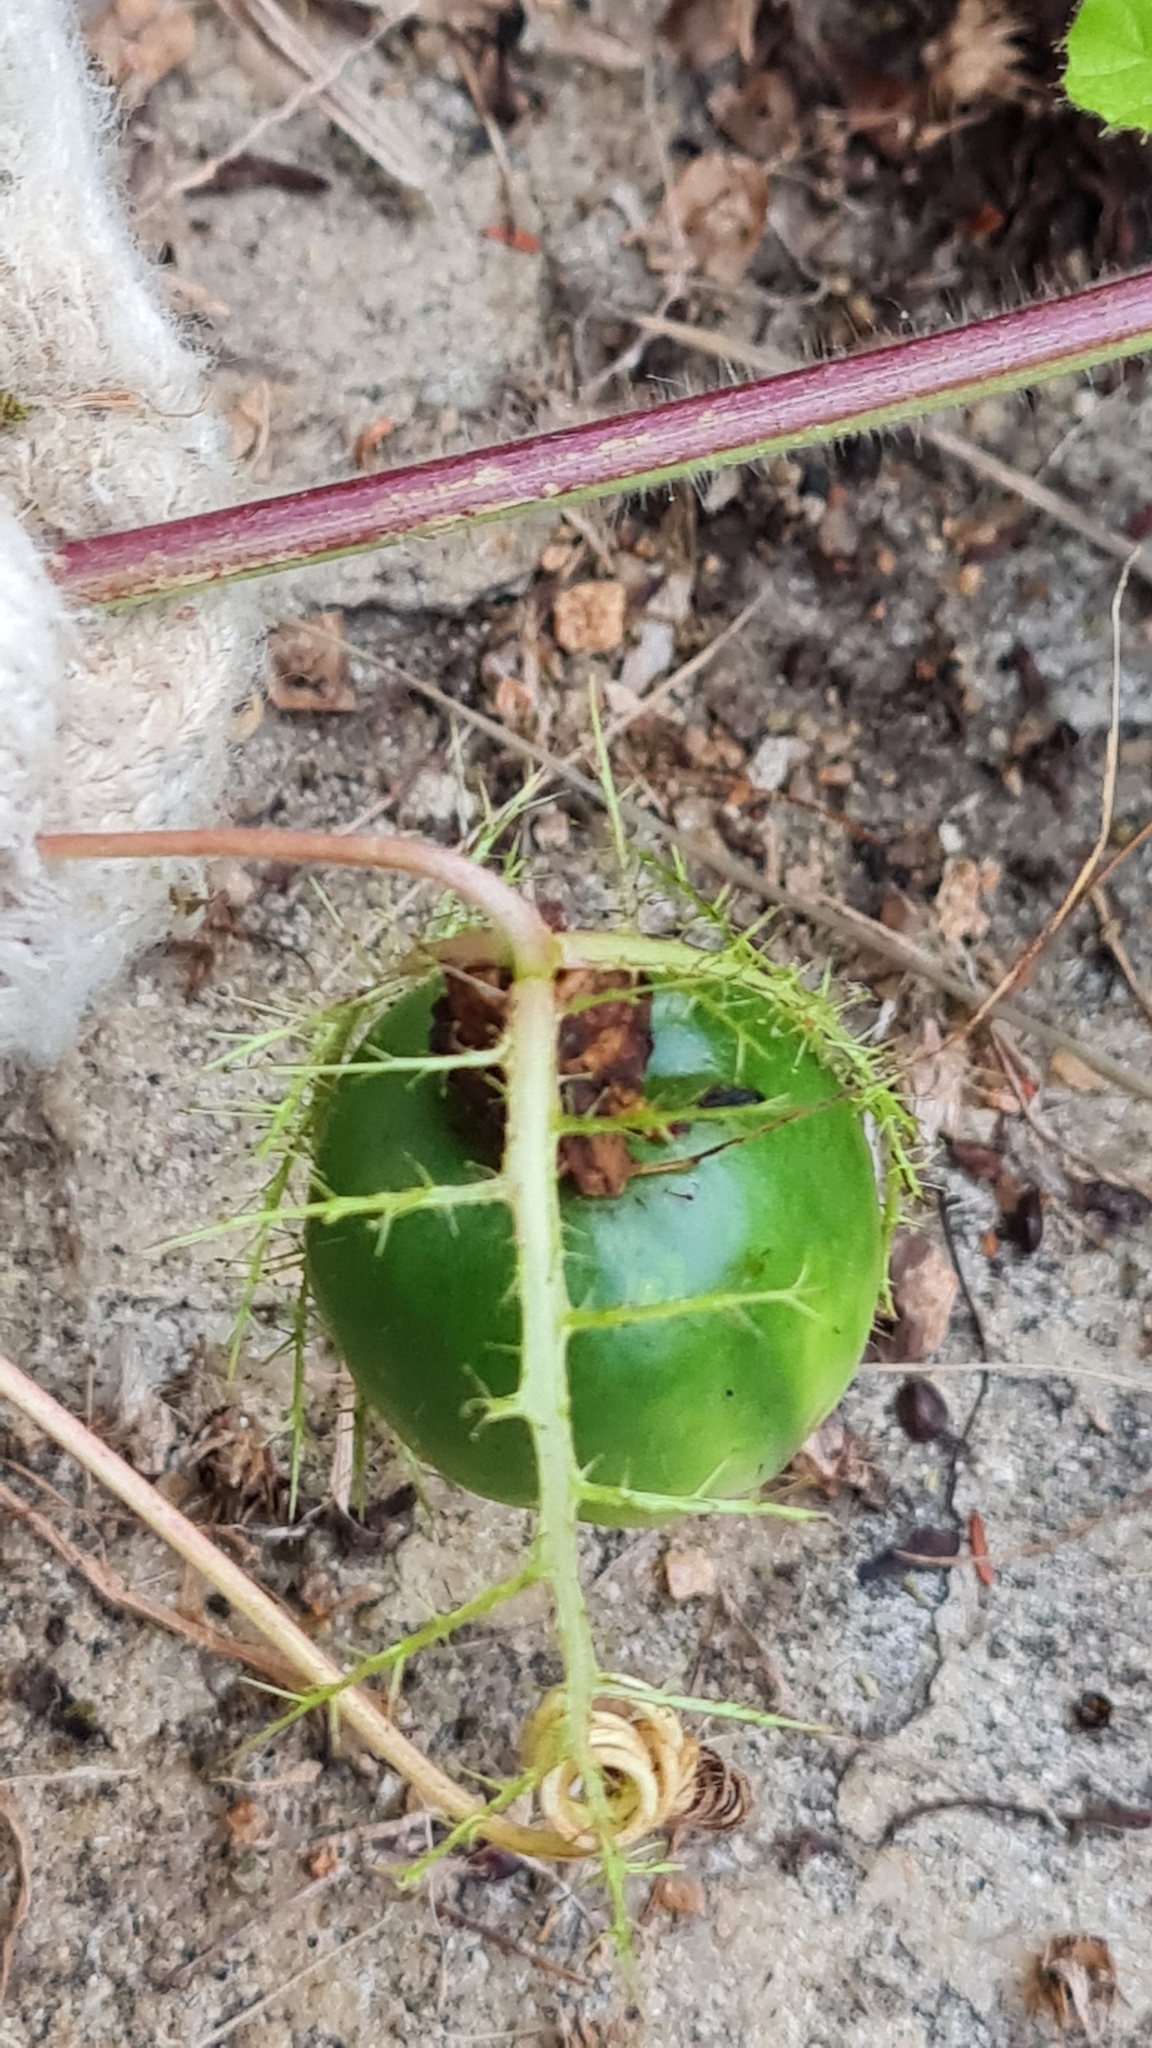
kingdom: Plantae
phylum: Tracheophyta
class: Magnoliopsida
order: Malpighiales
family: Passifloraceae
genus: Passiflora
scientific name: Passiflora foetida
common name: Fetid passionflower
